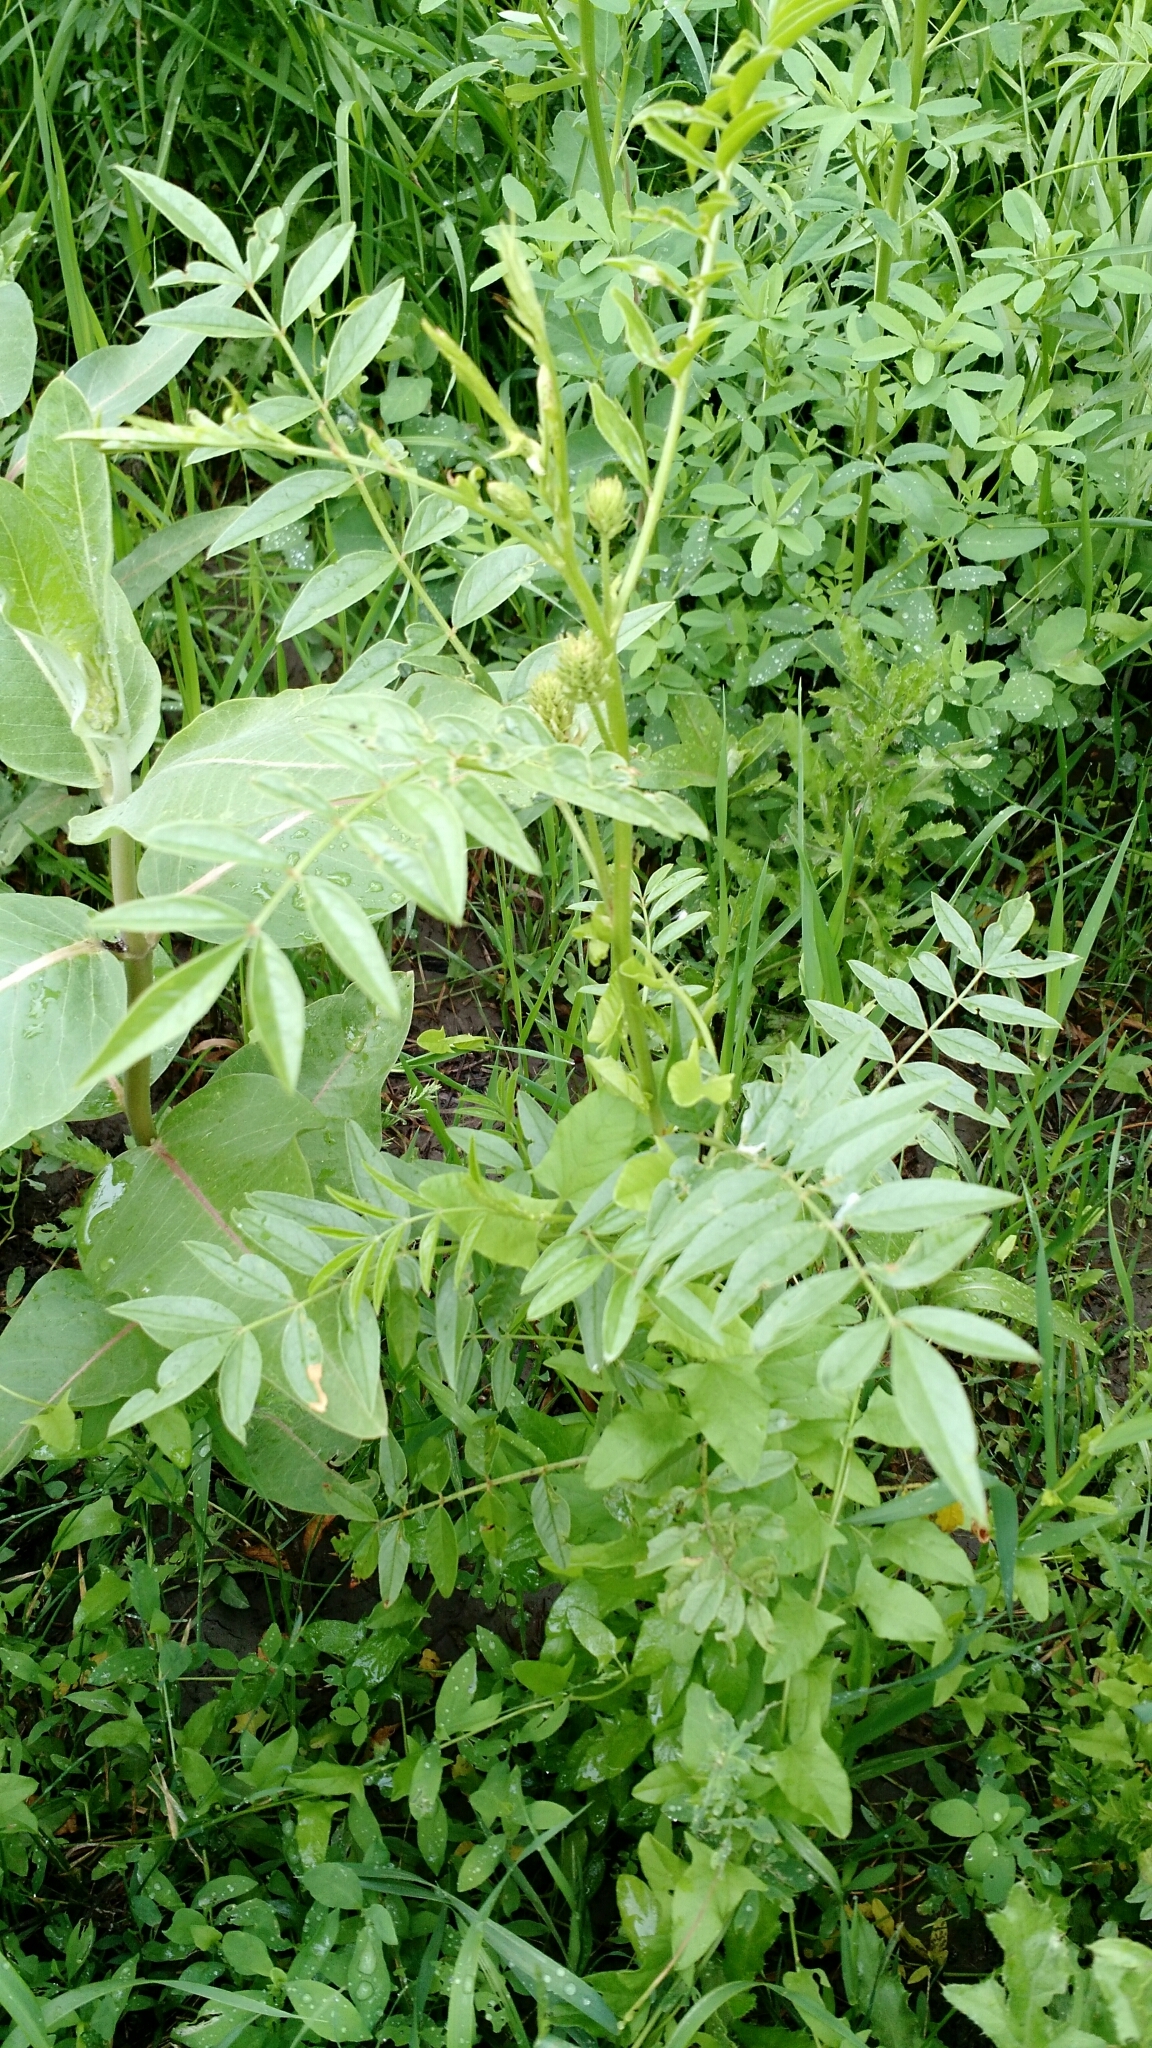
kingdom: Plantae
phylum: Tracheophyta
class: Magnoliopsida
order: Fabales
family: Fabaceae
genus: Glycyrrhiza
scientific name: Glycyrrhiza lepidota
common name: American liquorice
